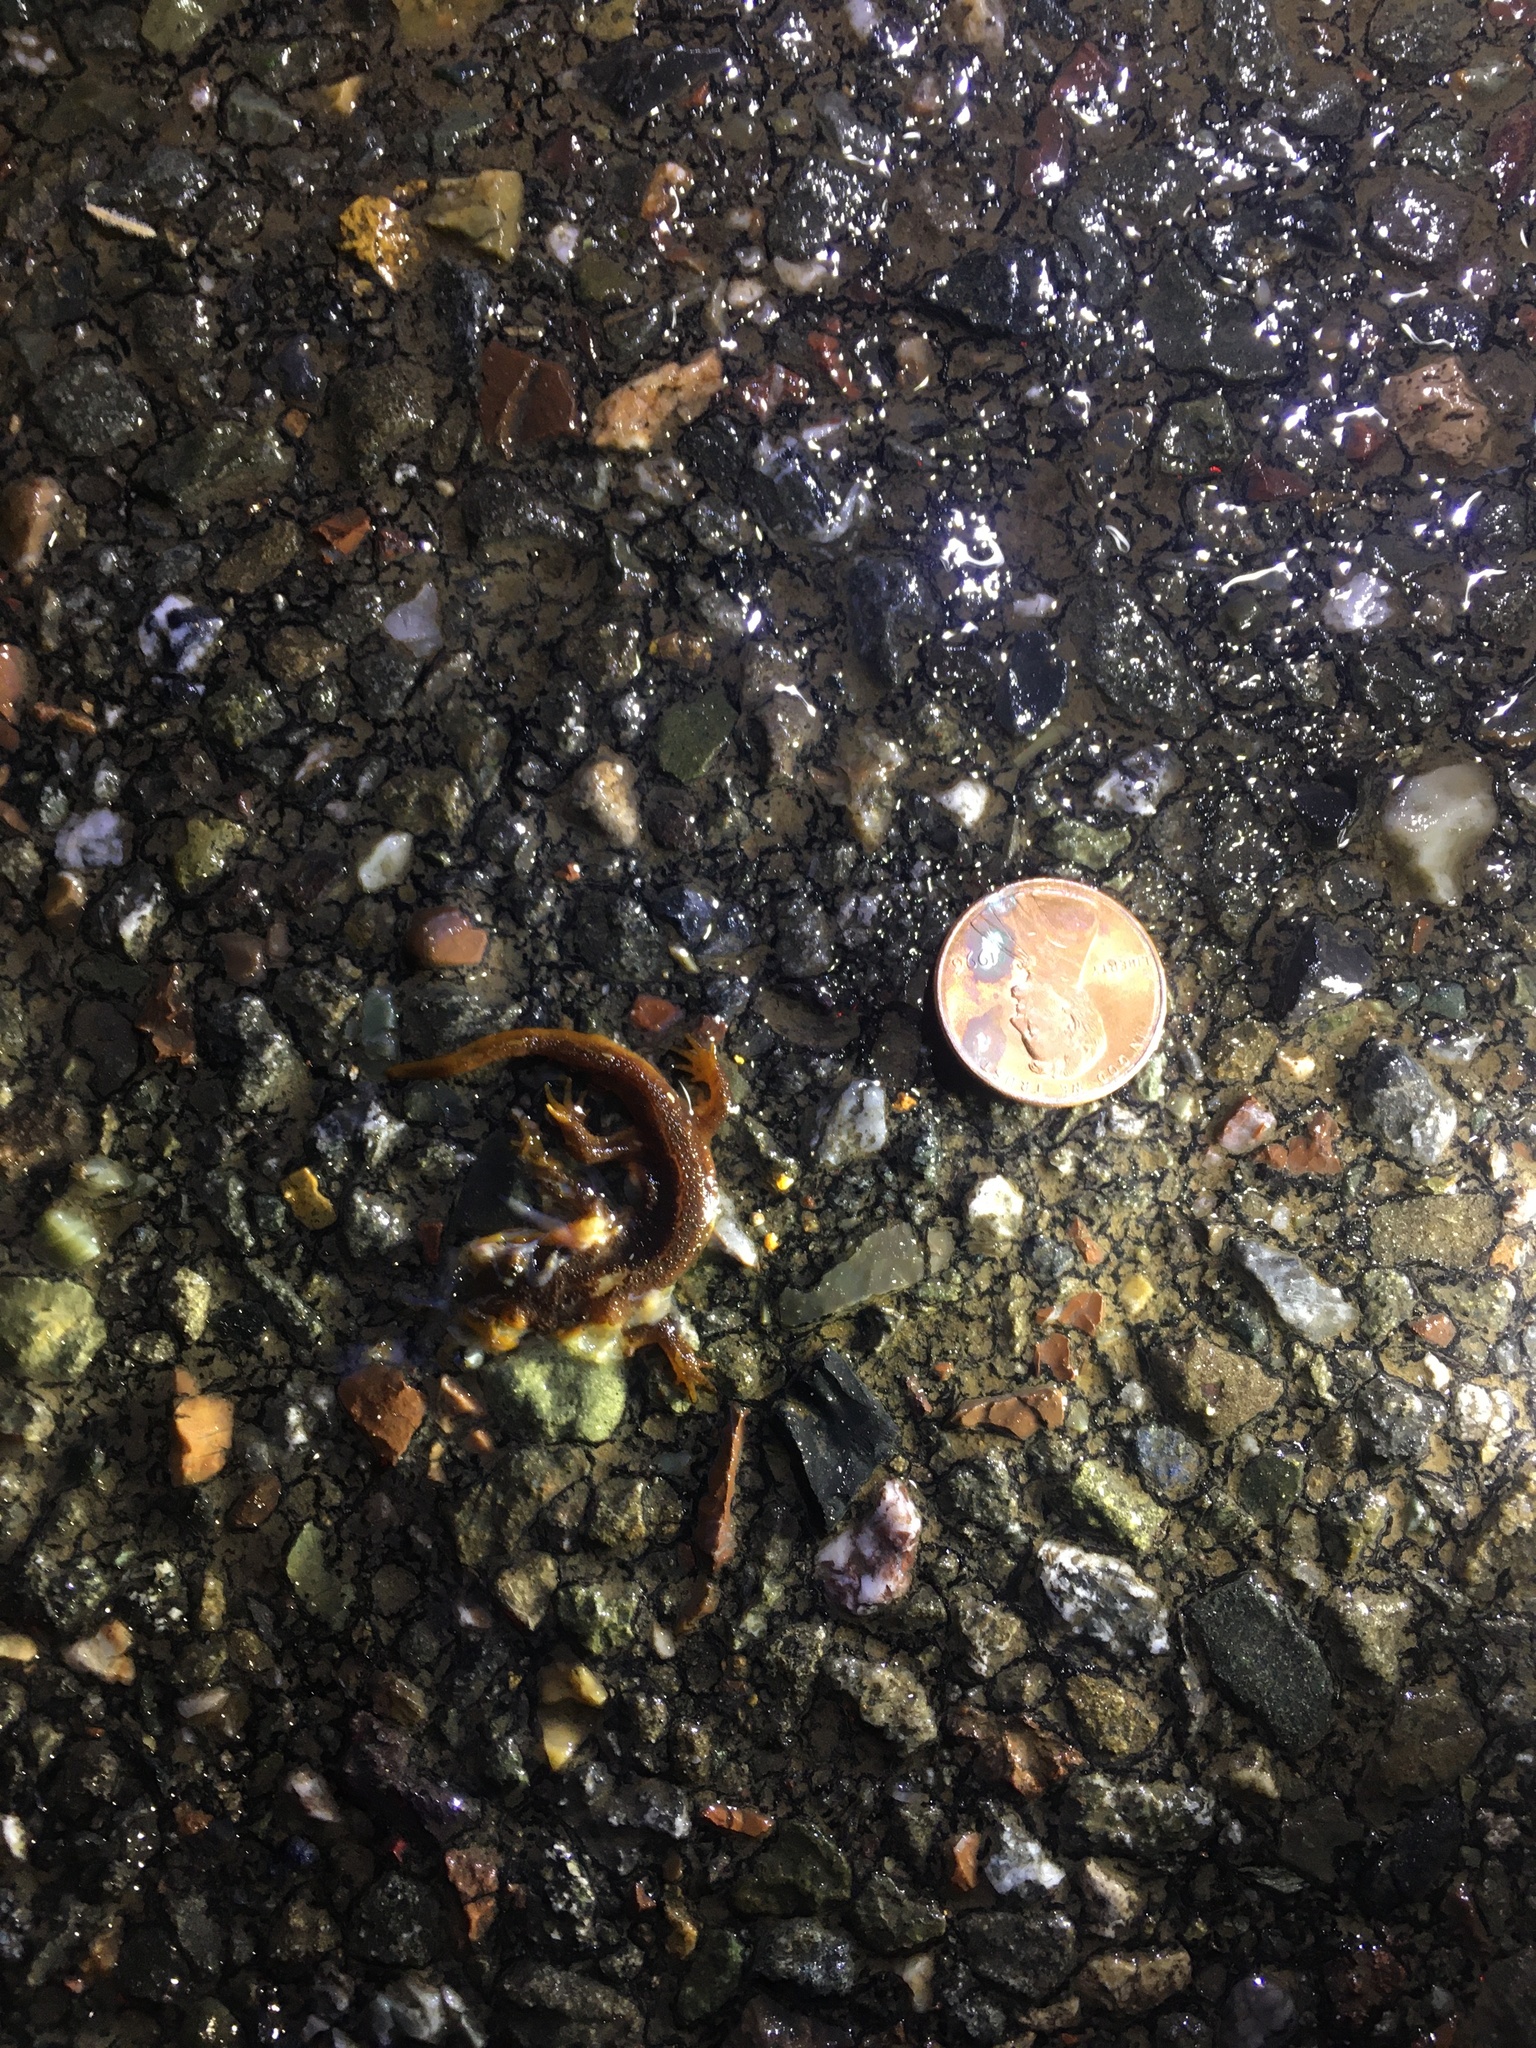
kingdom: Animalia
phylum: Chordata
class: Amphibia
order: Caudata
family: Salamandridae
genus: Taricha
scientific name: Taricha
